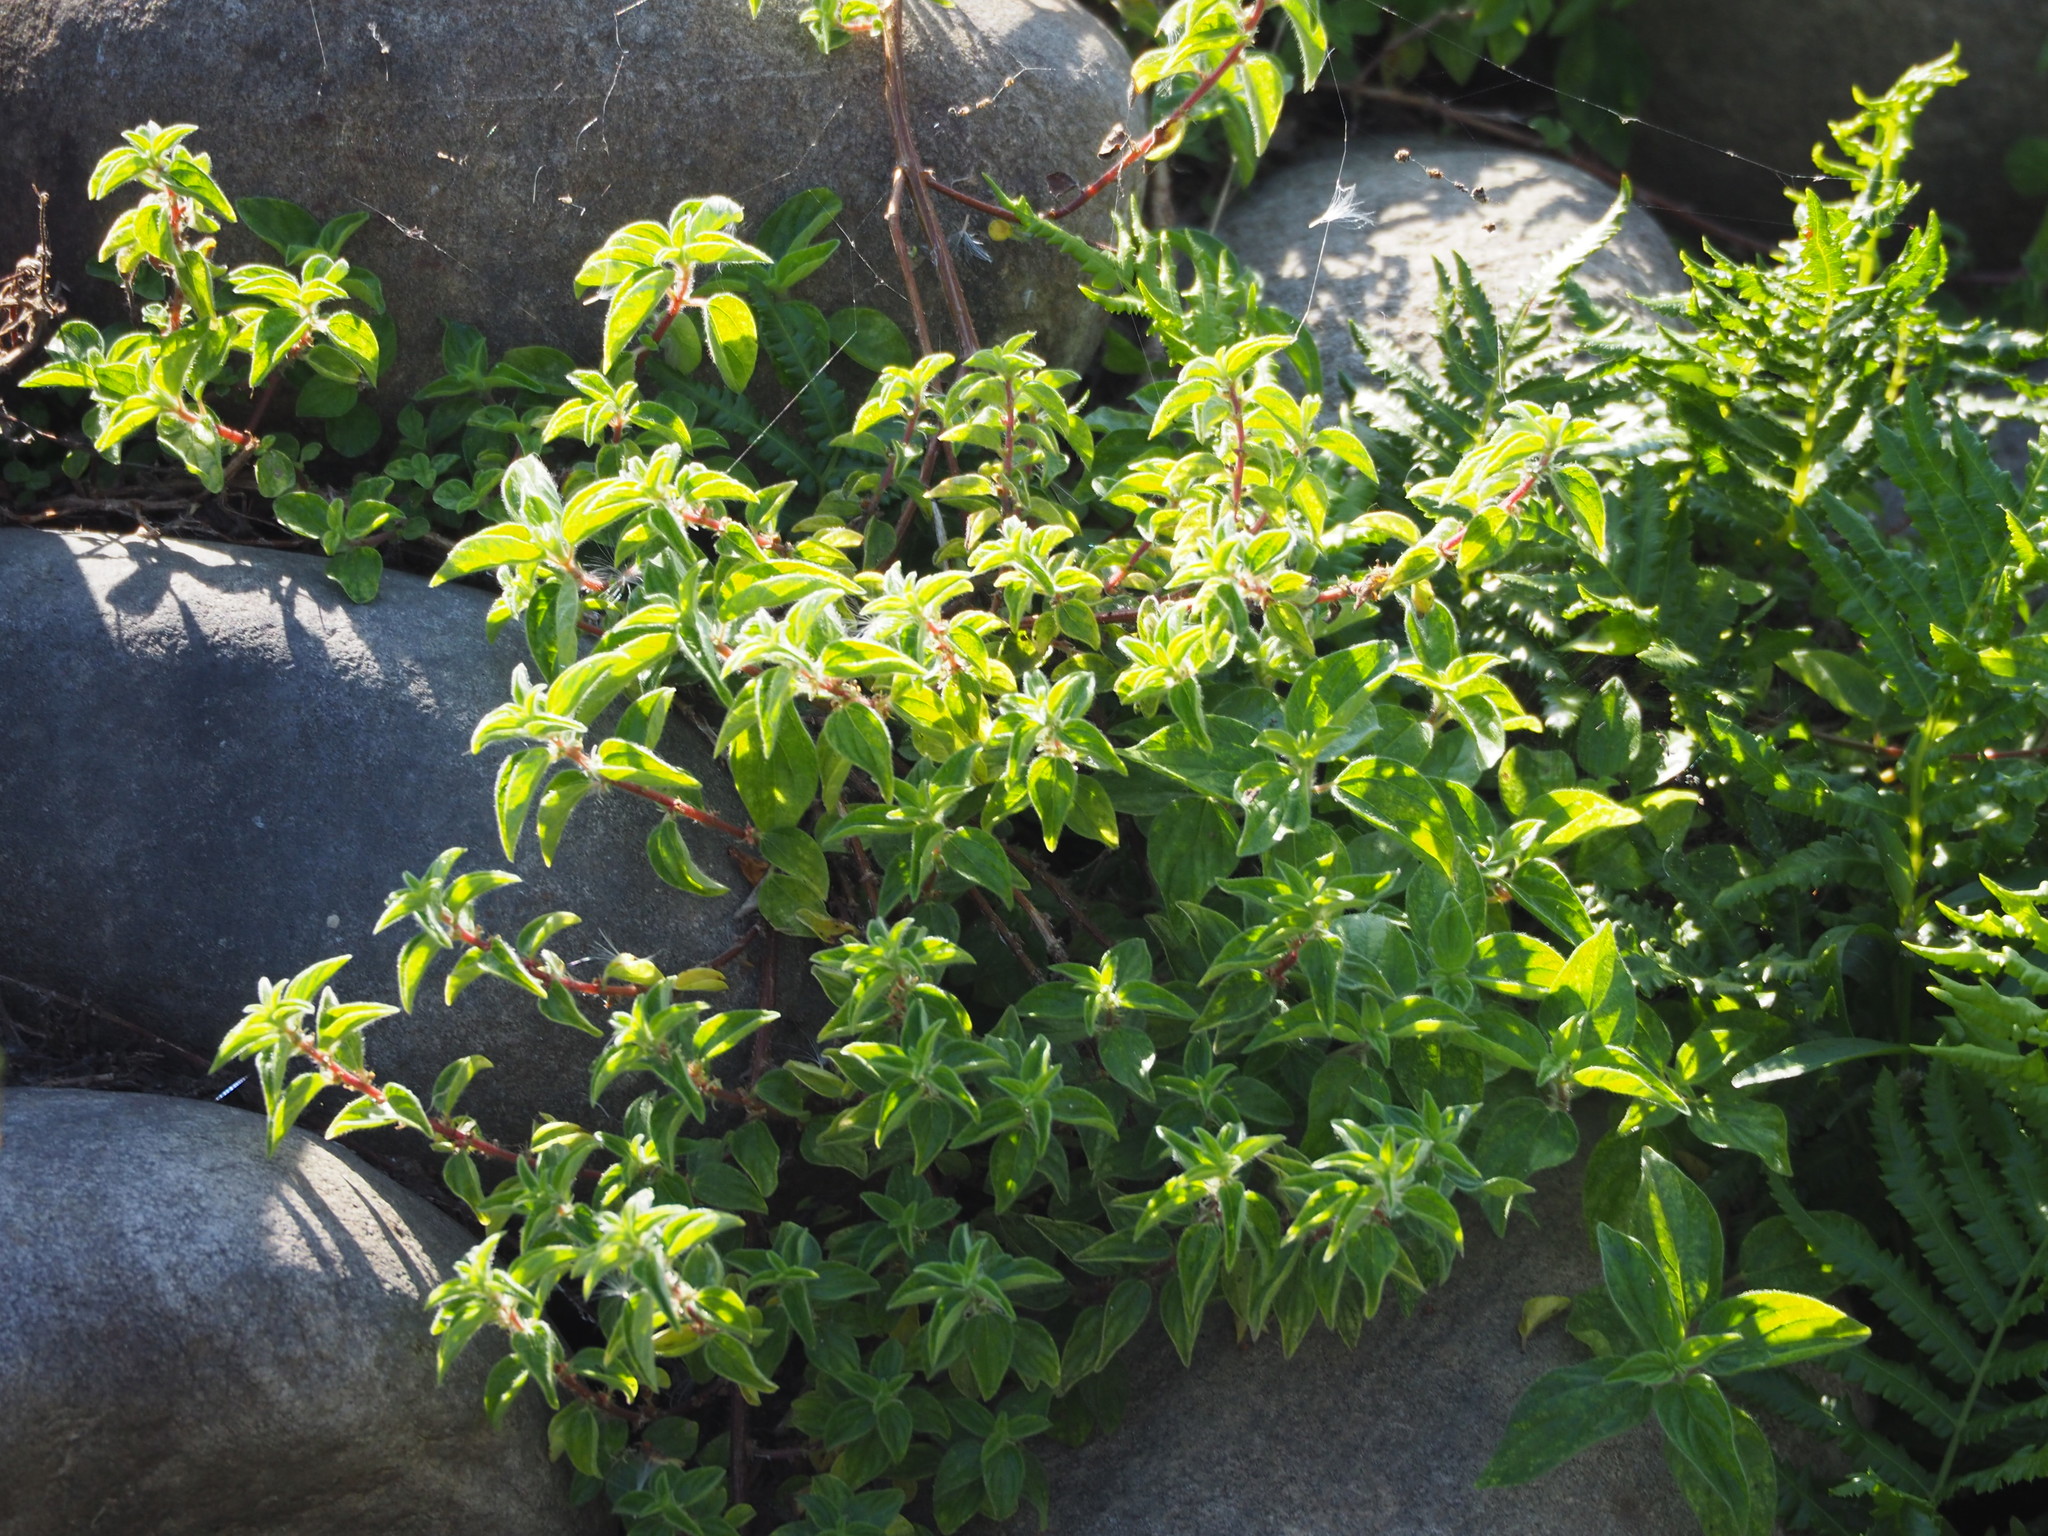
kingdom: Plantae
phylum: Tracheophyta
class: Magnoliopsida
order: Rosales
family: Urticaceae
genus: Pouzolzia
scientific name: Pouzolzia zeylanica
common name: Graceful pouzolzsbush
